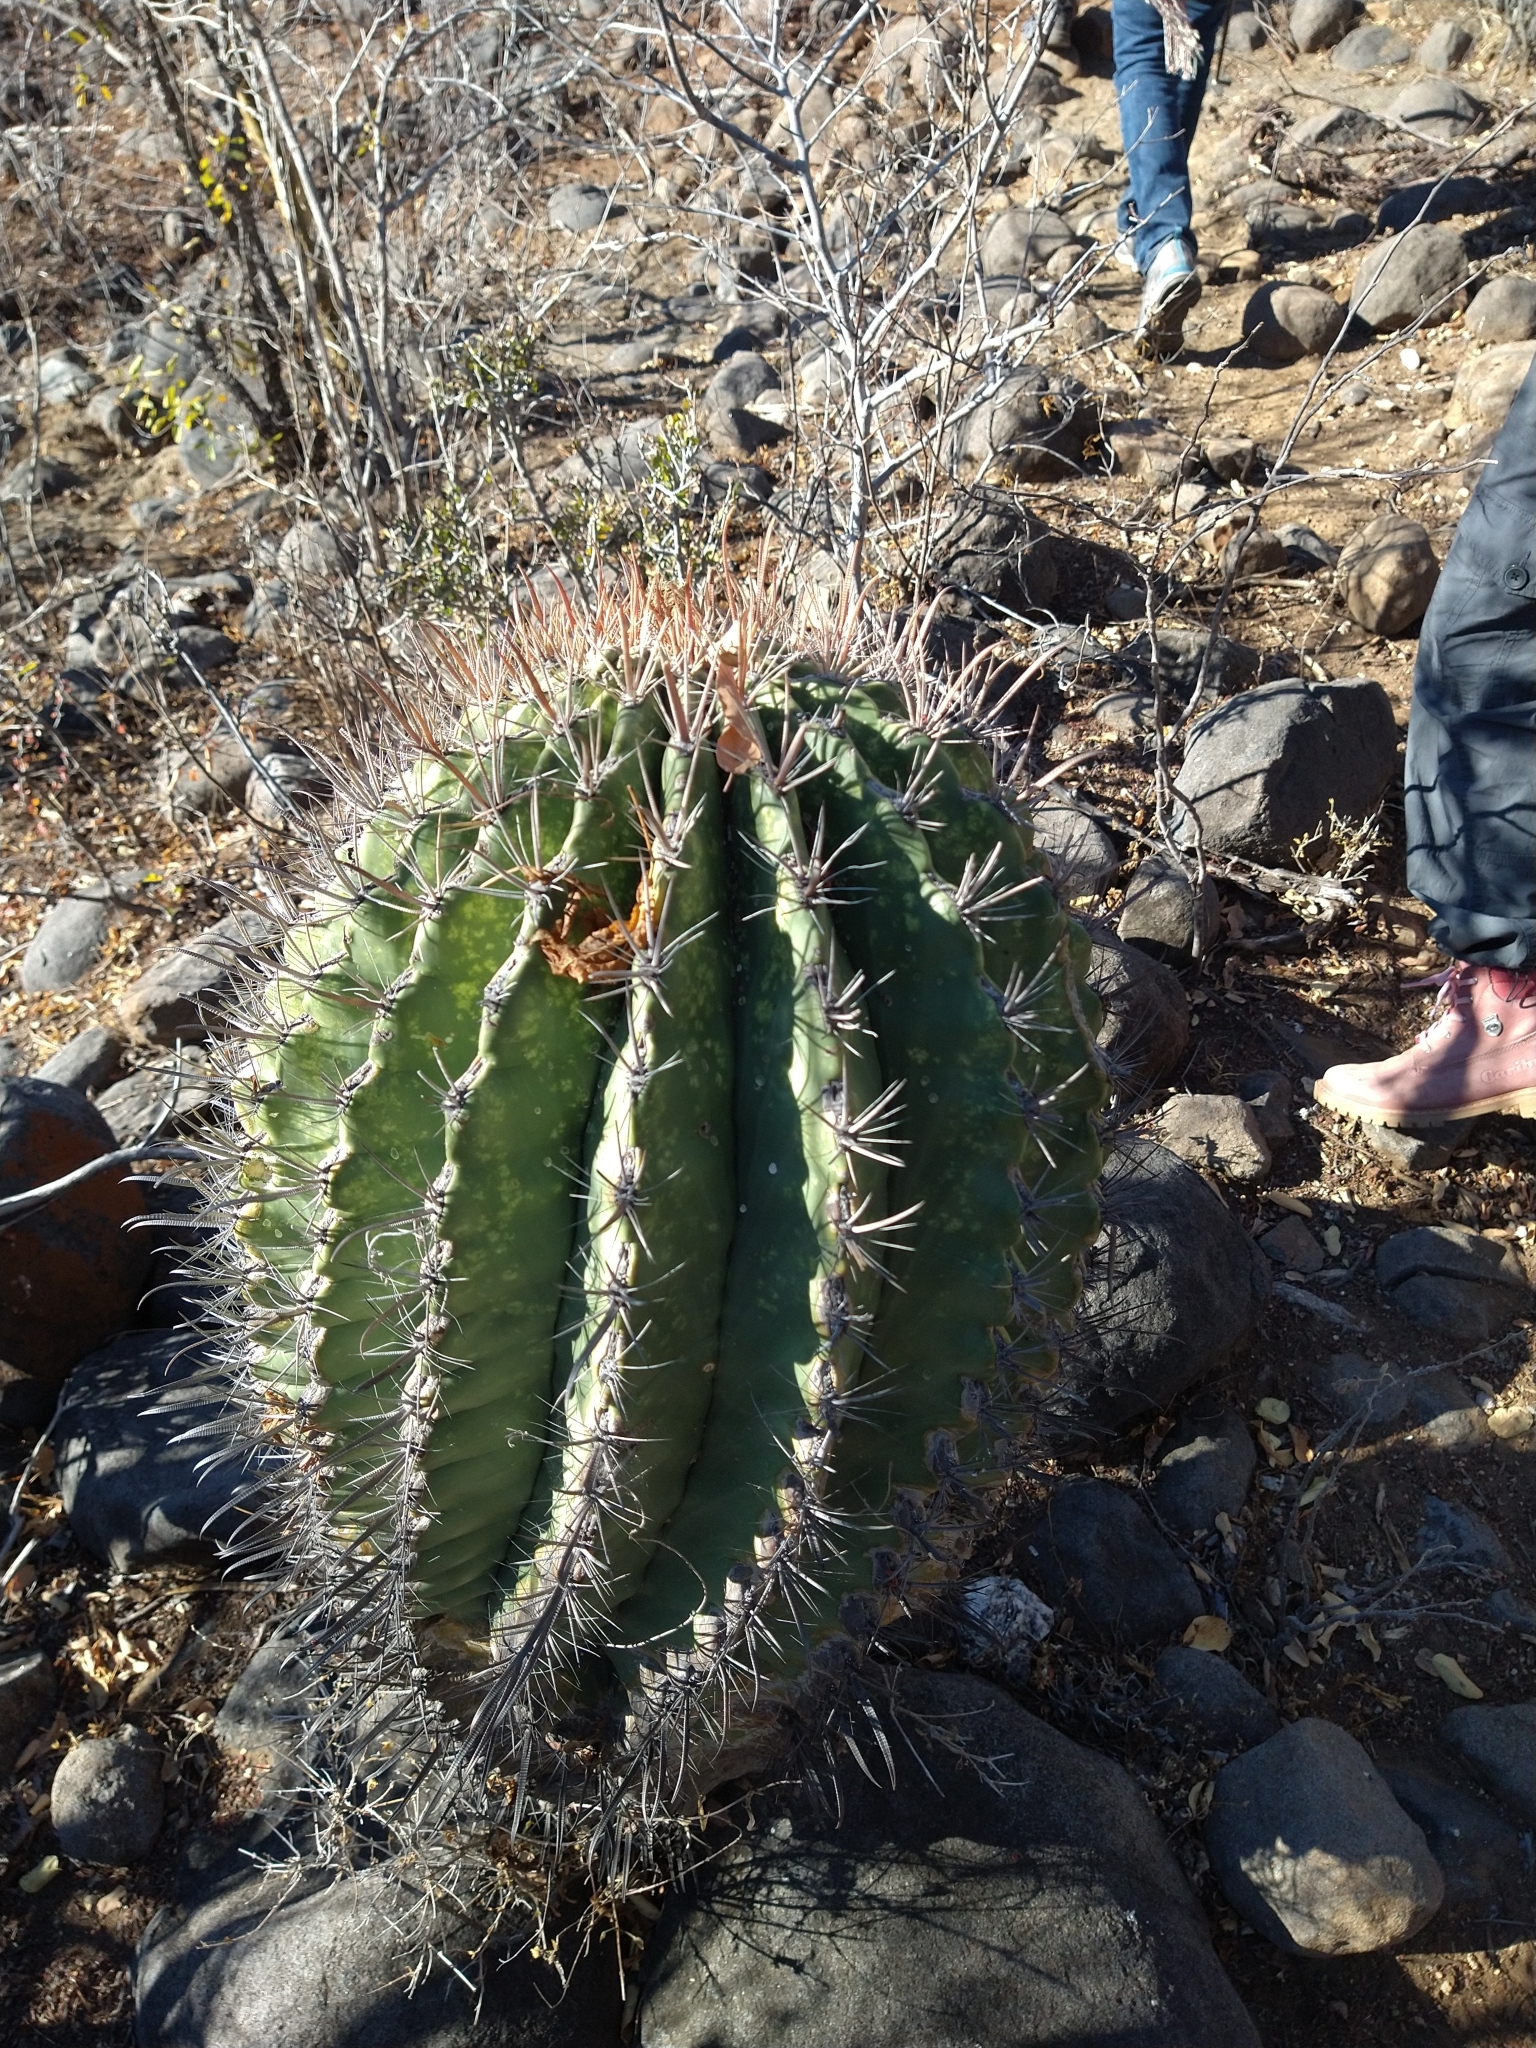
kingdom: Plantae
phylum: Tracheophyta
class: Magnoliopsida
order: Caryophyllales
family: Cactaceae
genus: Ferocactus
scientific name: Ferocactus townsendianus
